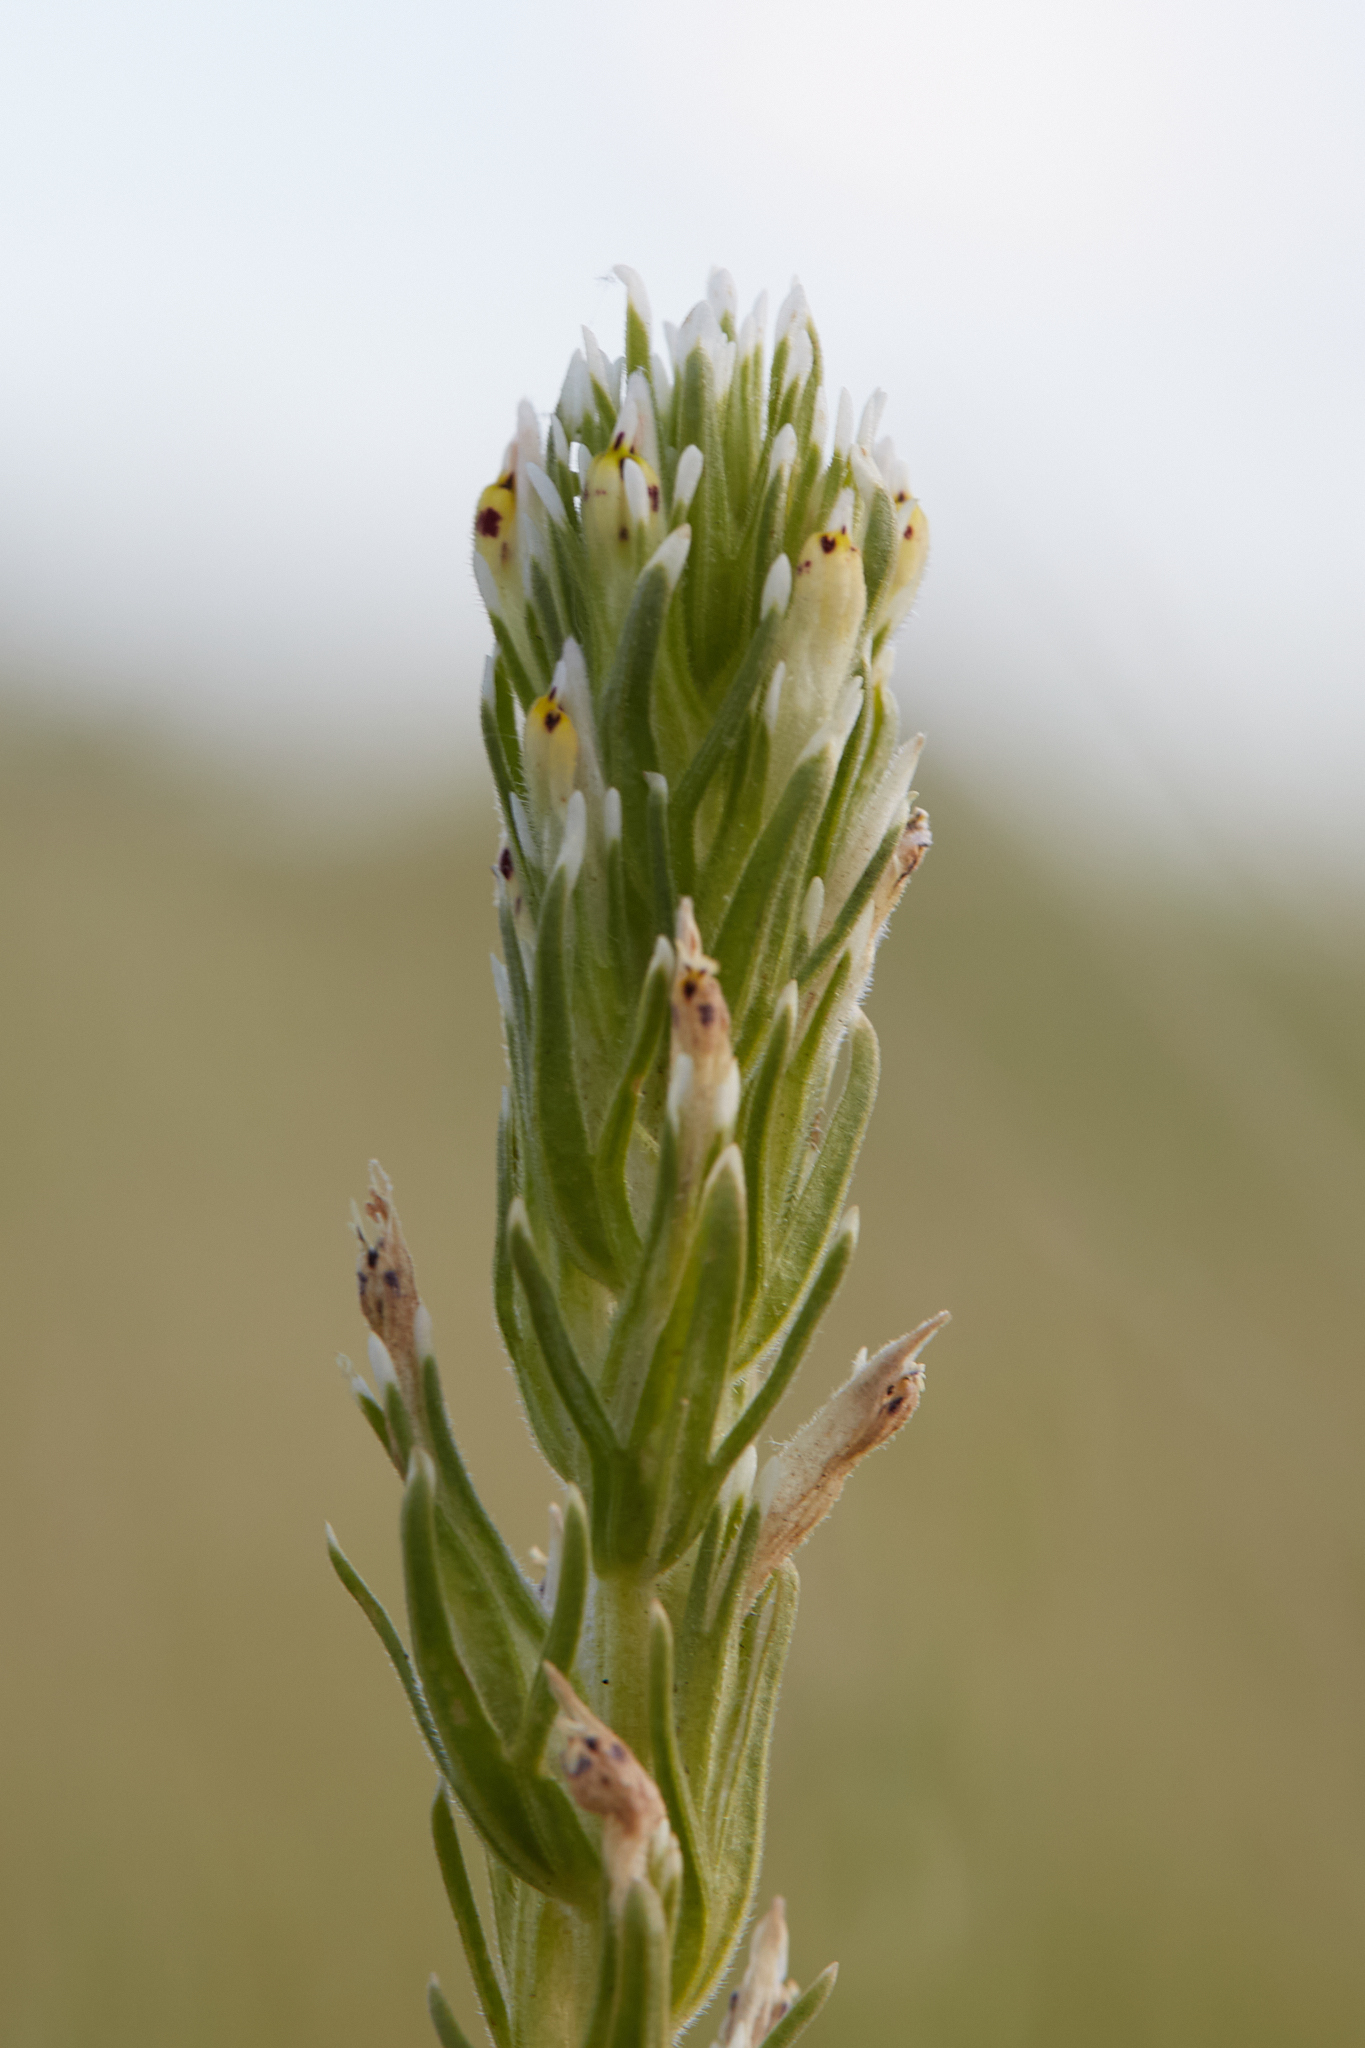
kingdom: Plantae
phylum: Tracheophyta
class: Magnoliopsida
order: Lamiales
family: Orobanchaceae
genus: Castilleja
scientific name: Castilleja attenuata
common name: Valley tassels
